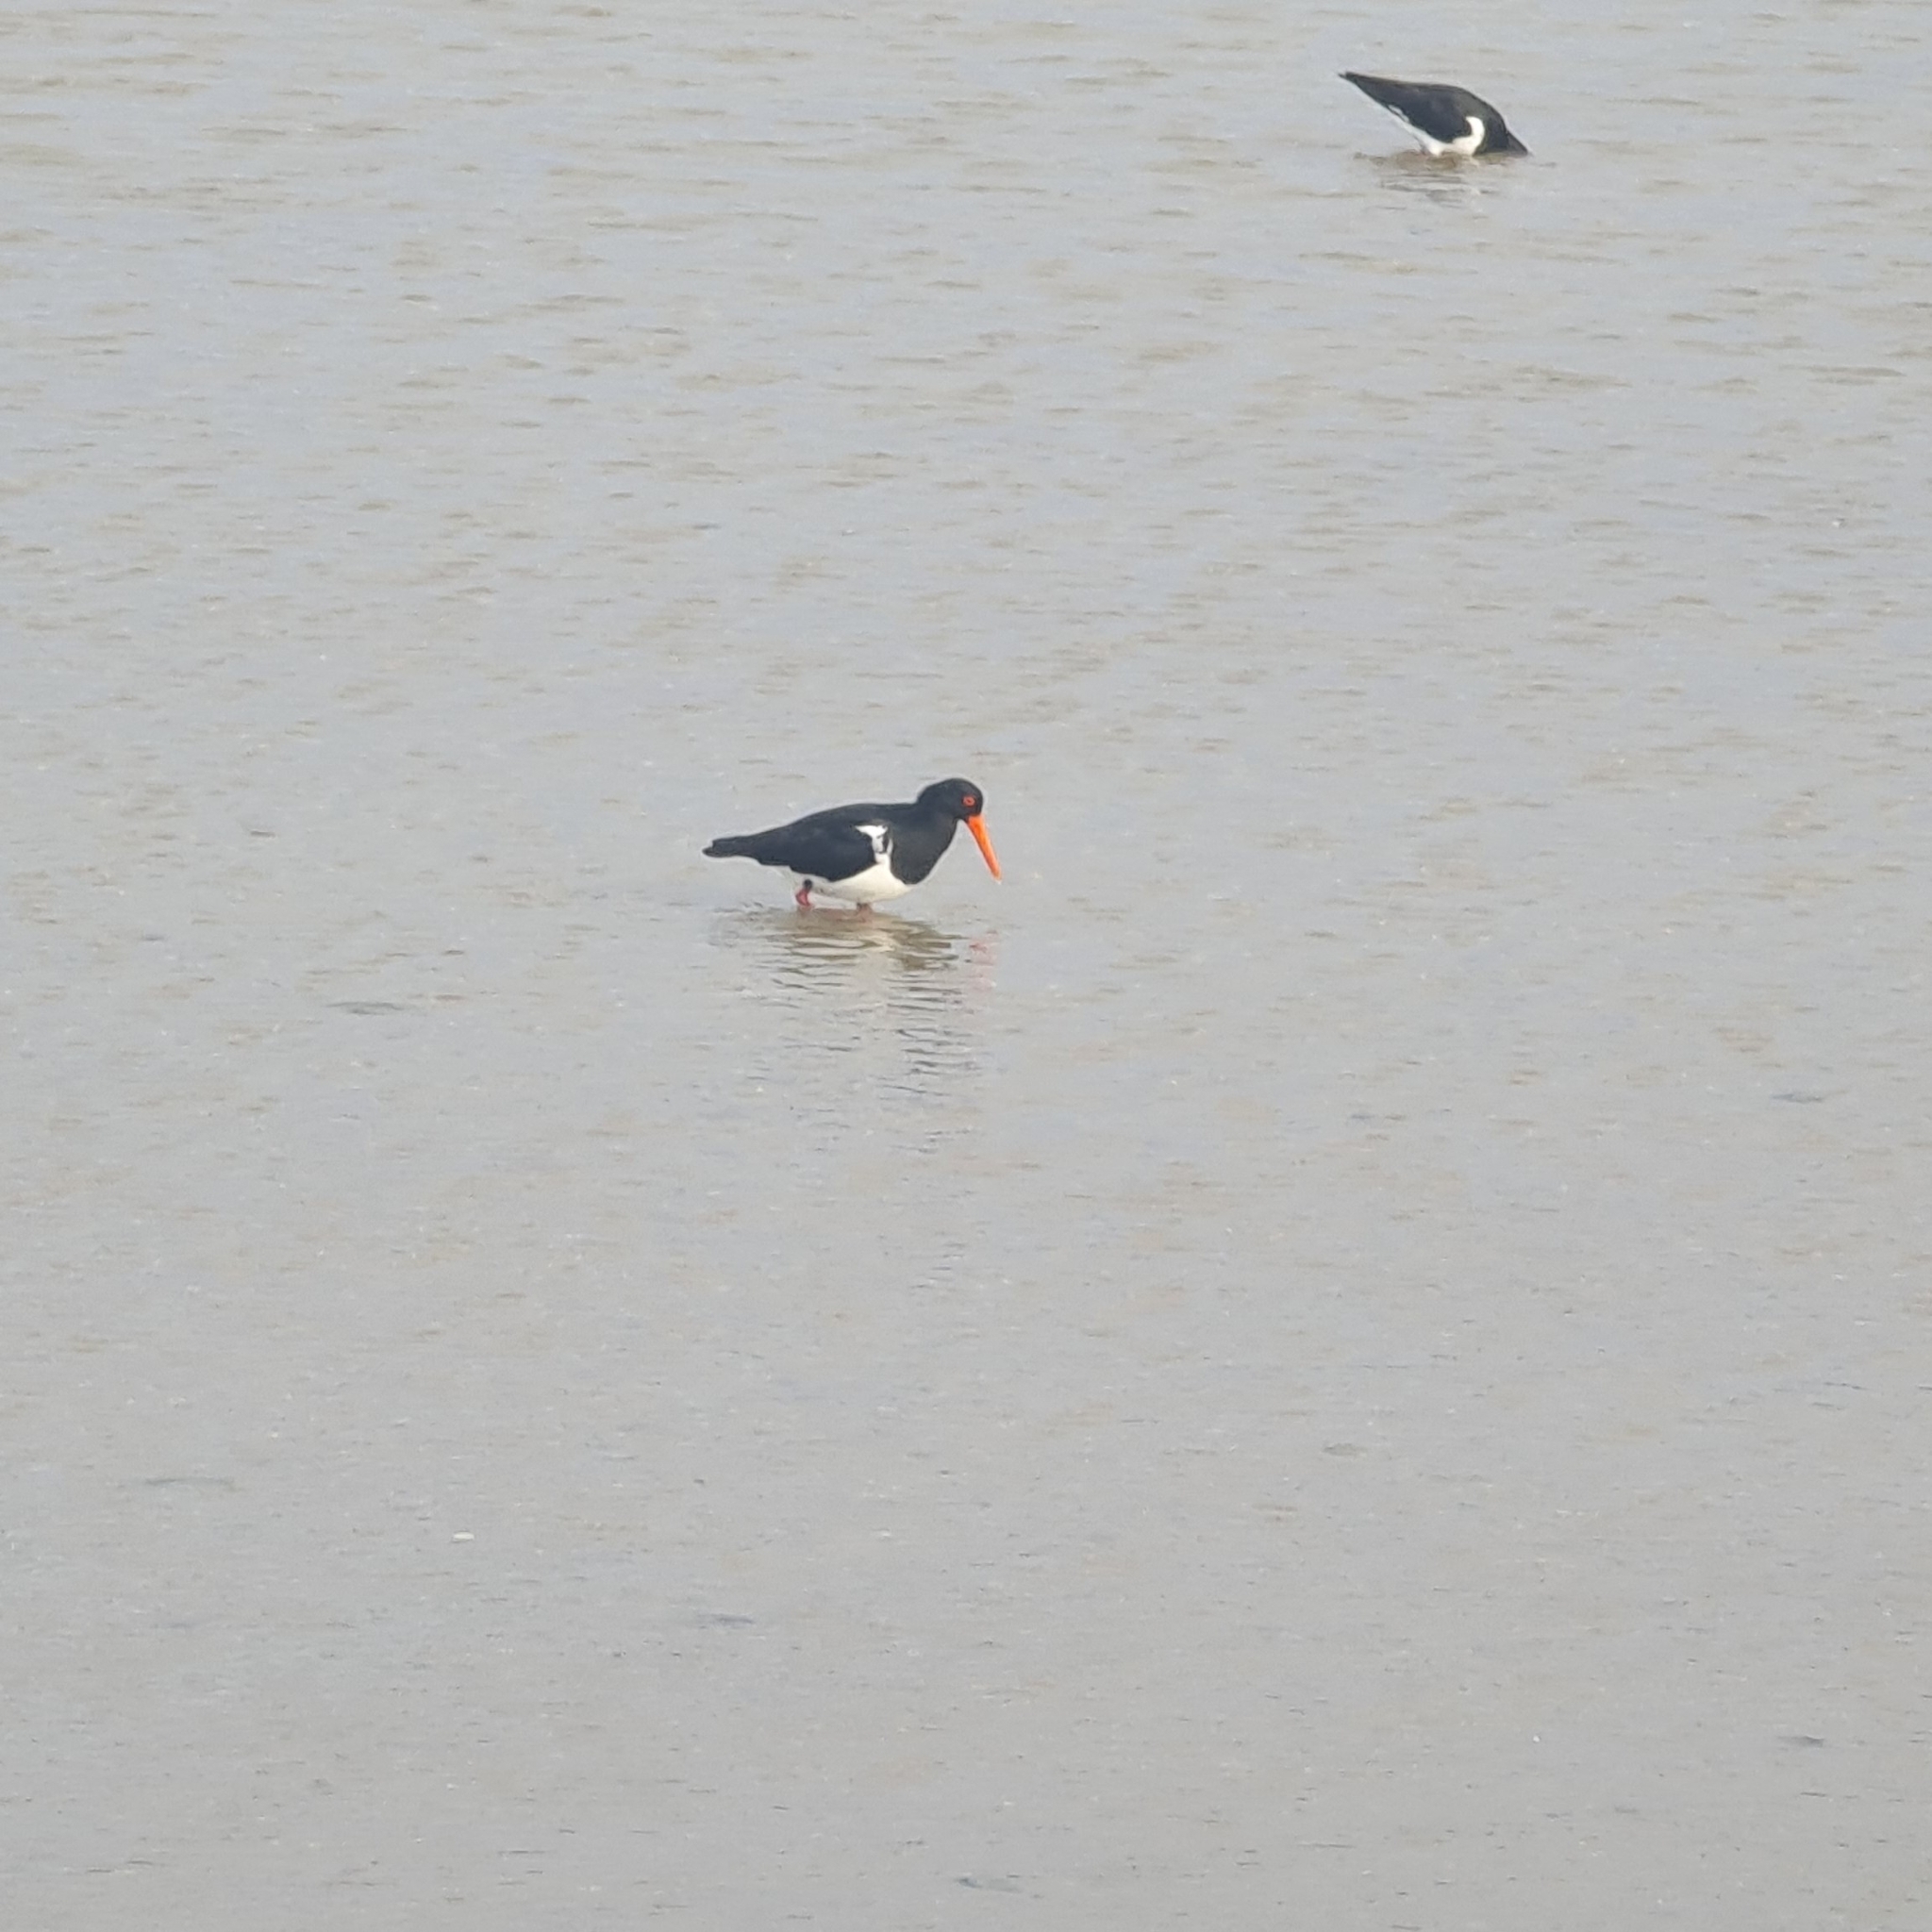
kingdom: Animalia
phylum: Chordata
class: Aves
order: Charadriiformes
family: Haematopodidae
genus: Haematopus
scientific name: Haematopus longirostris
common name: Pied oystercatcher
